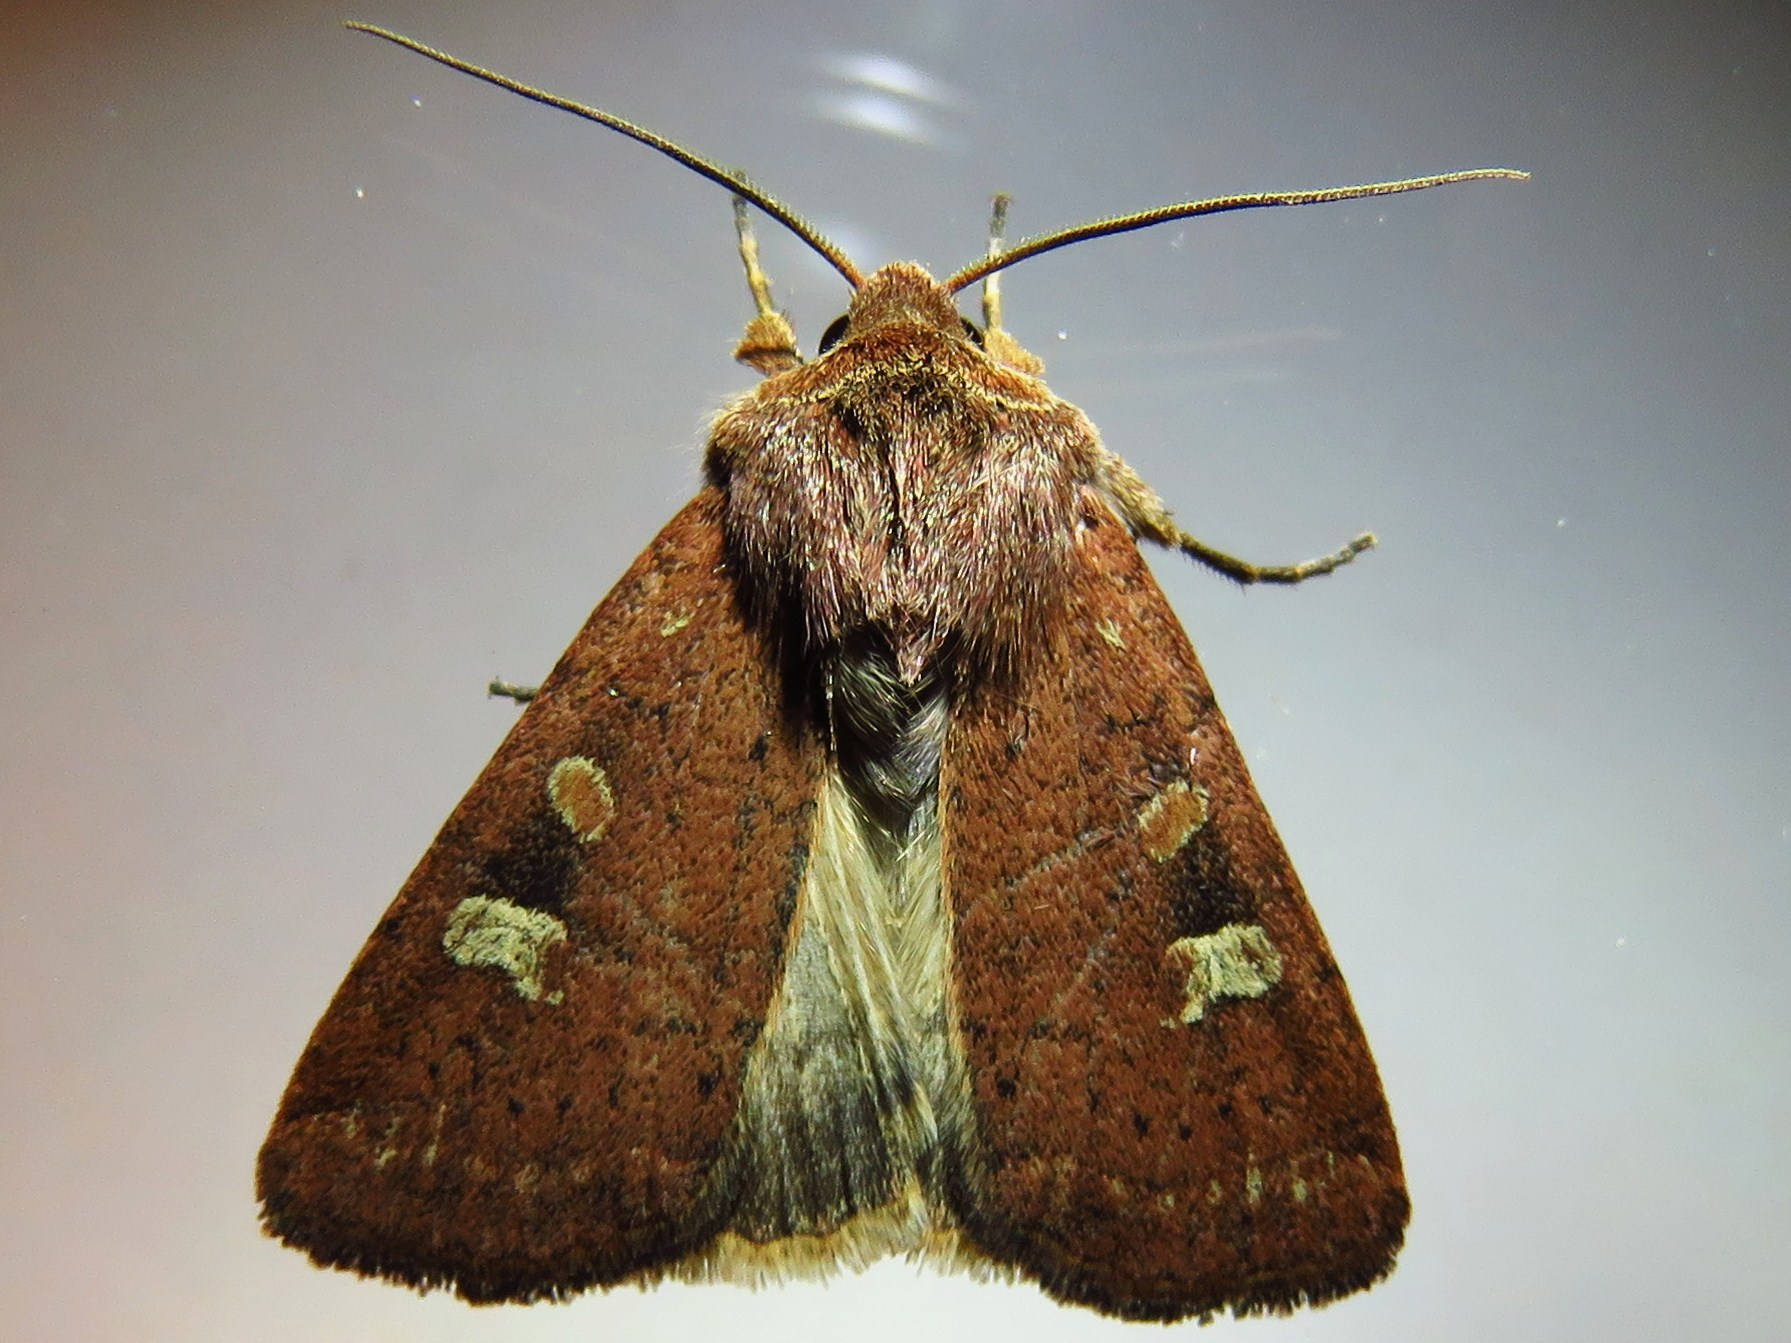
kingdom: Animalia
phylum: Arthropoda
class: Insecta
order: Lepidoptera
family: Noctuidae
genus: Xestia
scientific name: Xestia xanthographa
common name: Square-spot rustic
